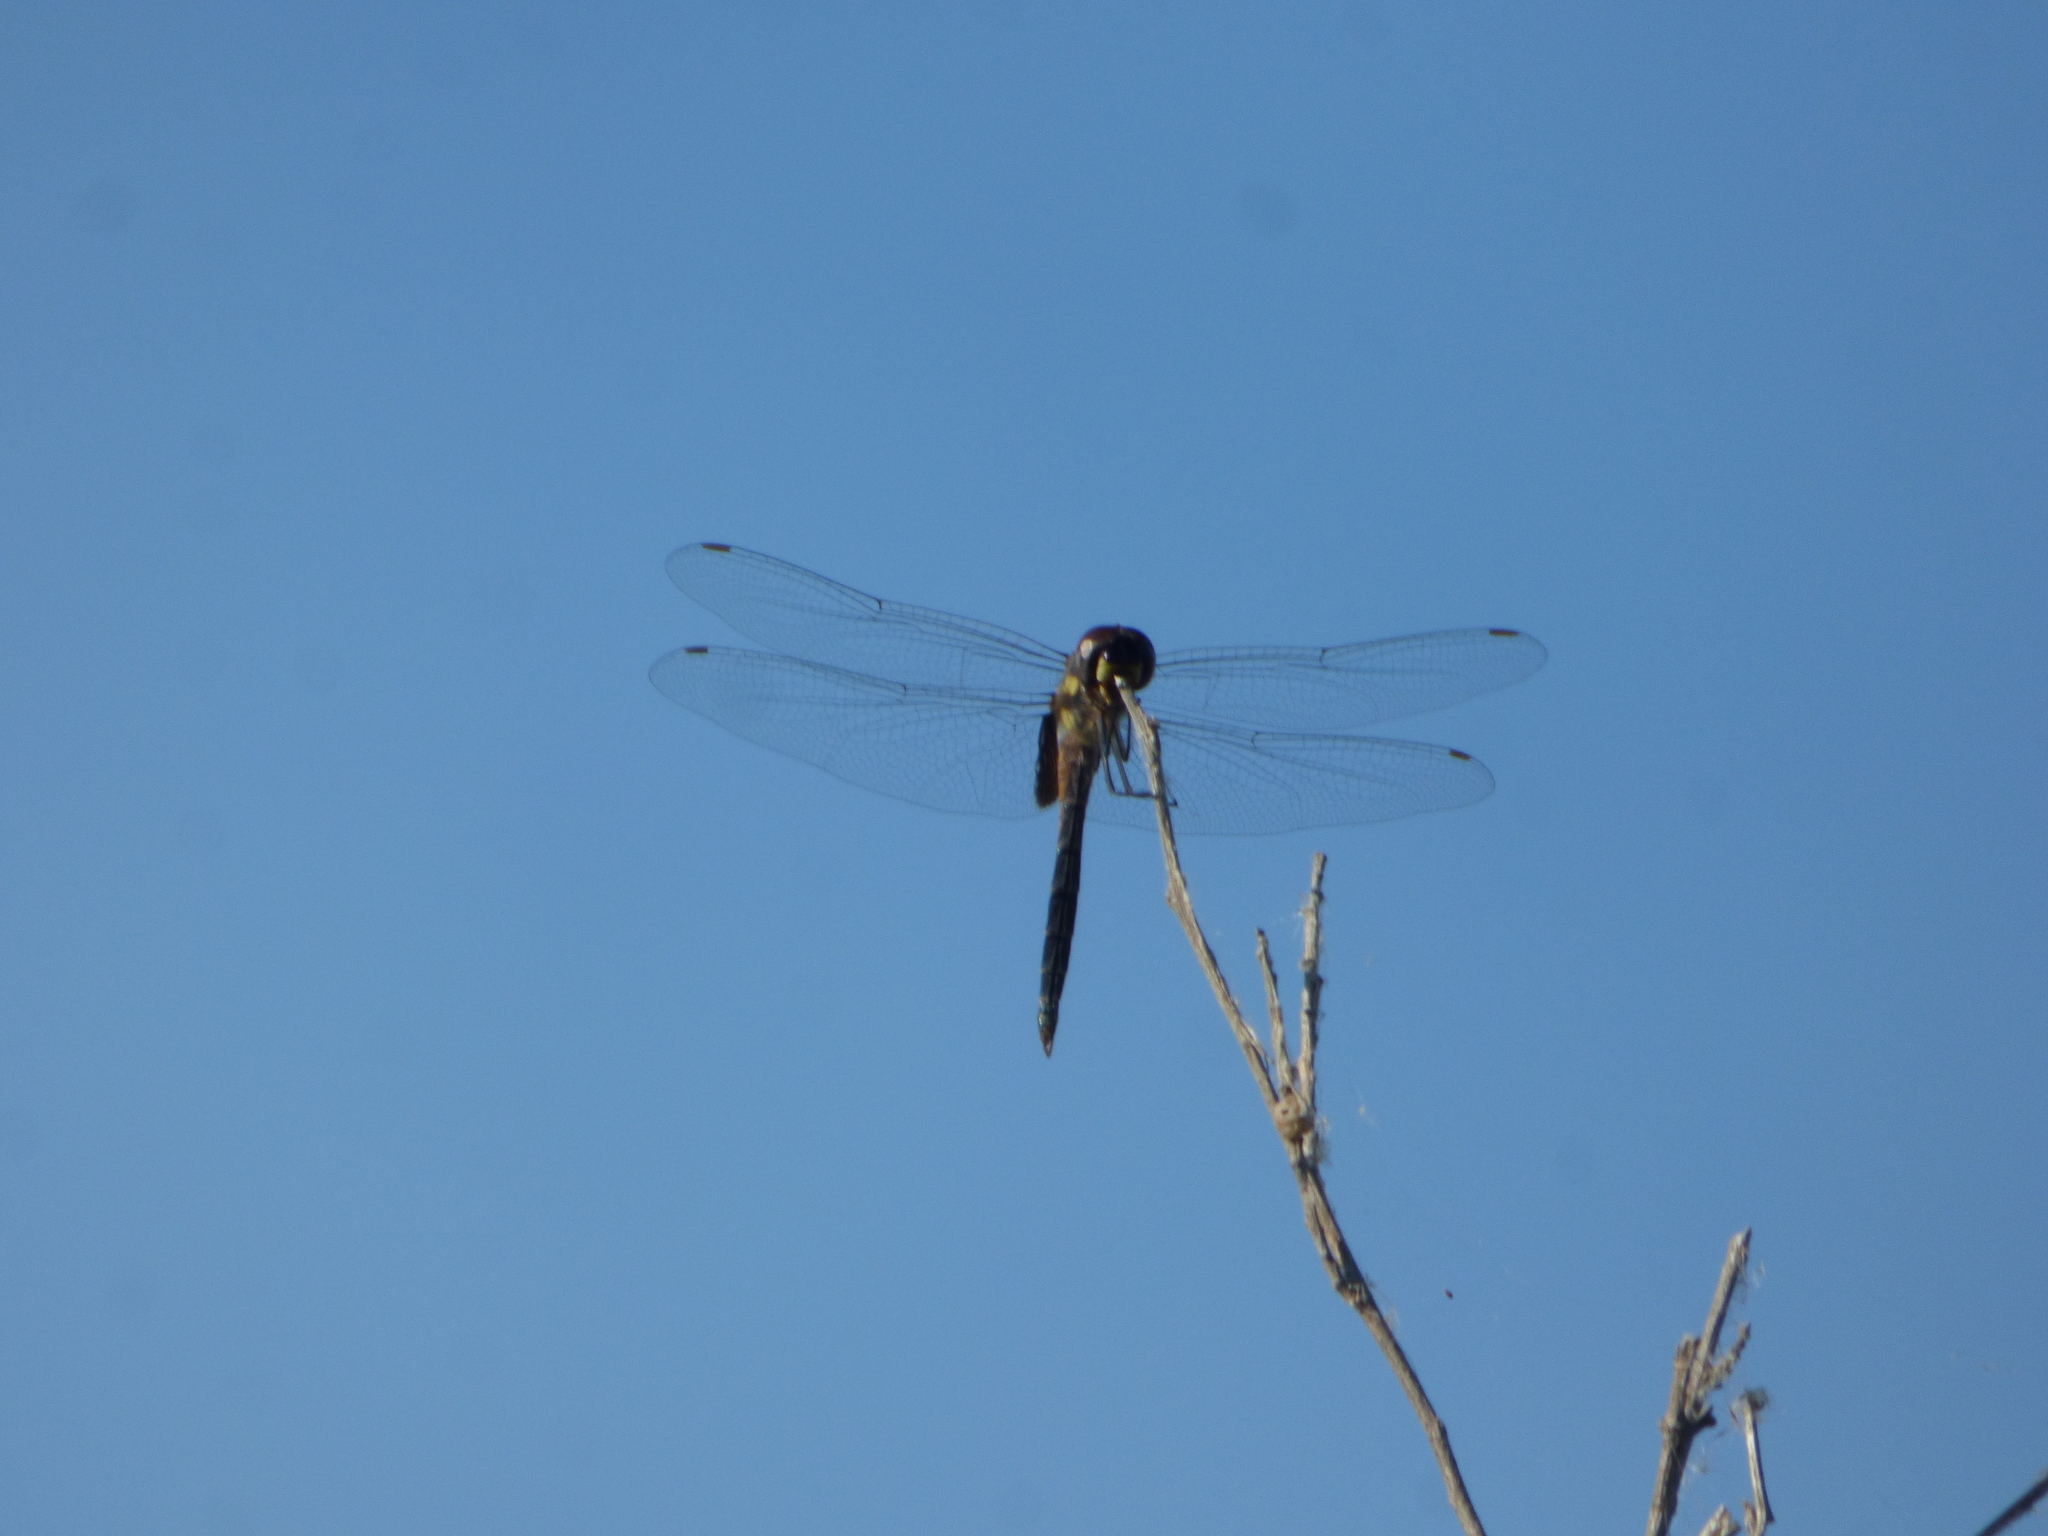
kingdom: Animalia
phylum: Arthropoda
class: Insecta
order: Odonata
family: Libellulidae
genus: Tramea
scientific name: Tramea cophysa
